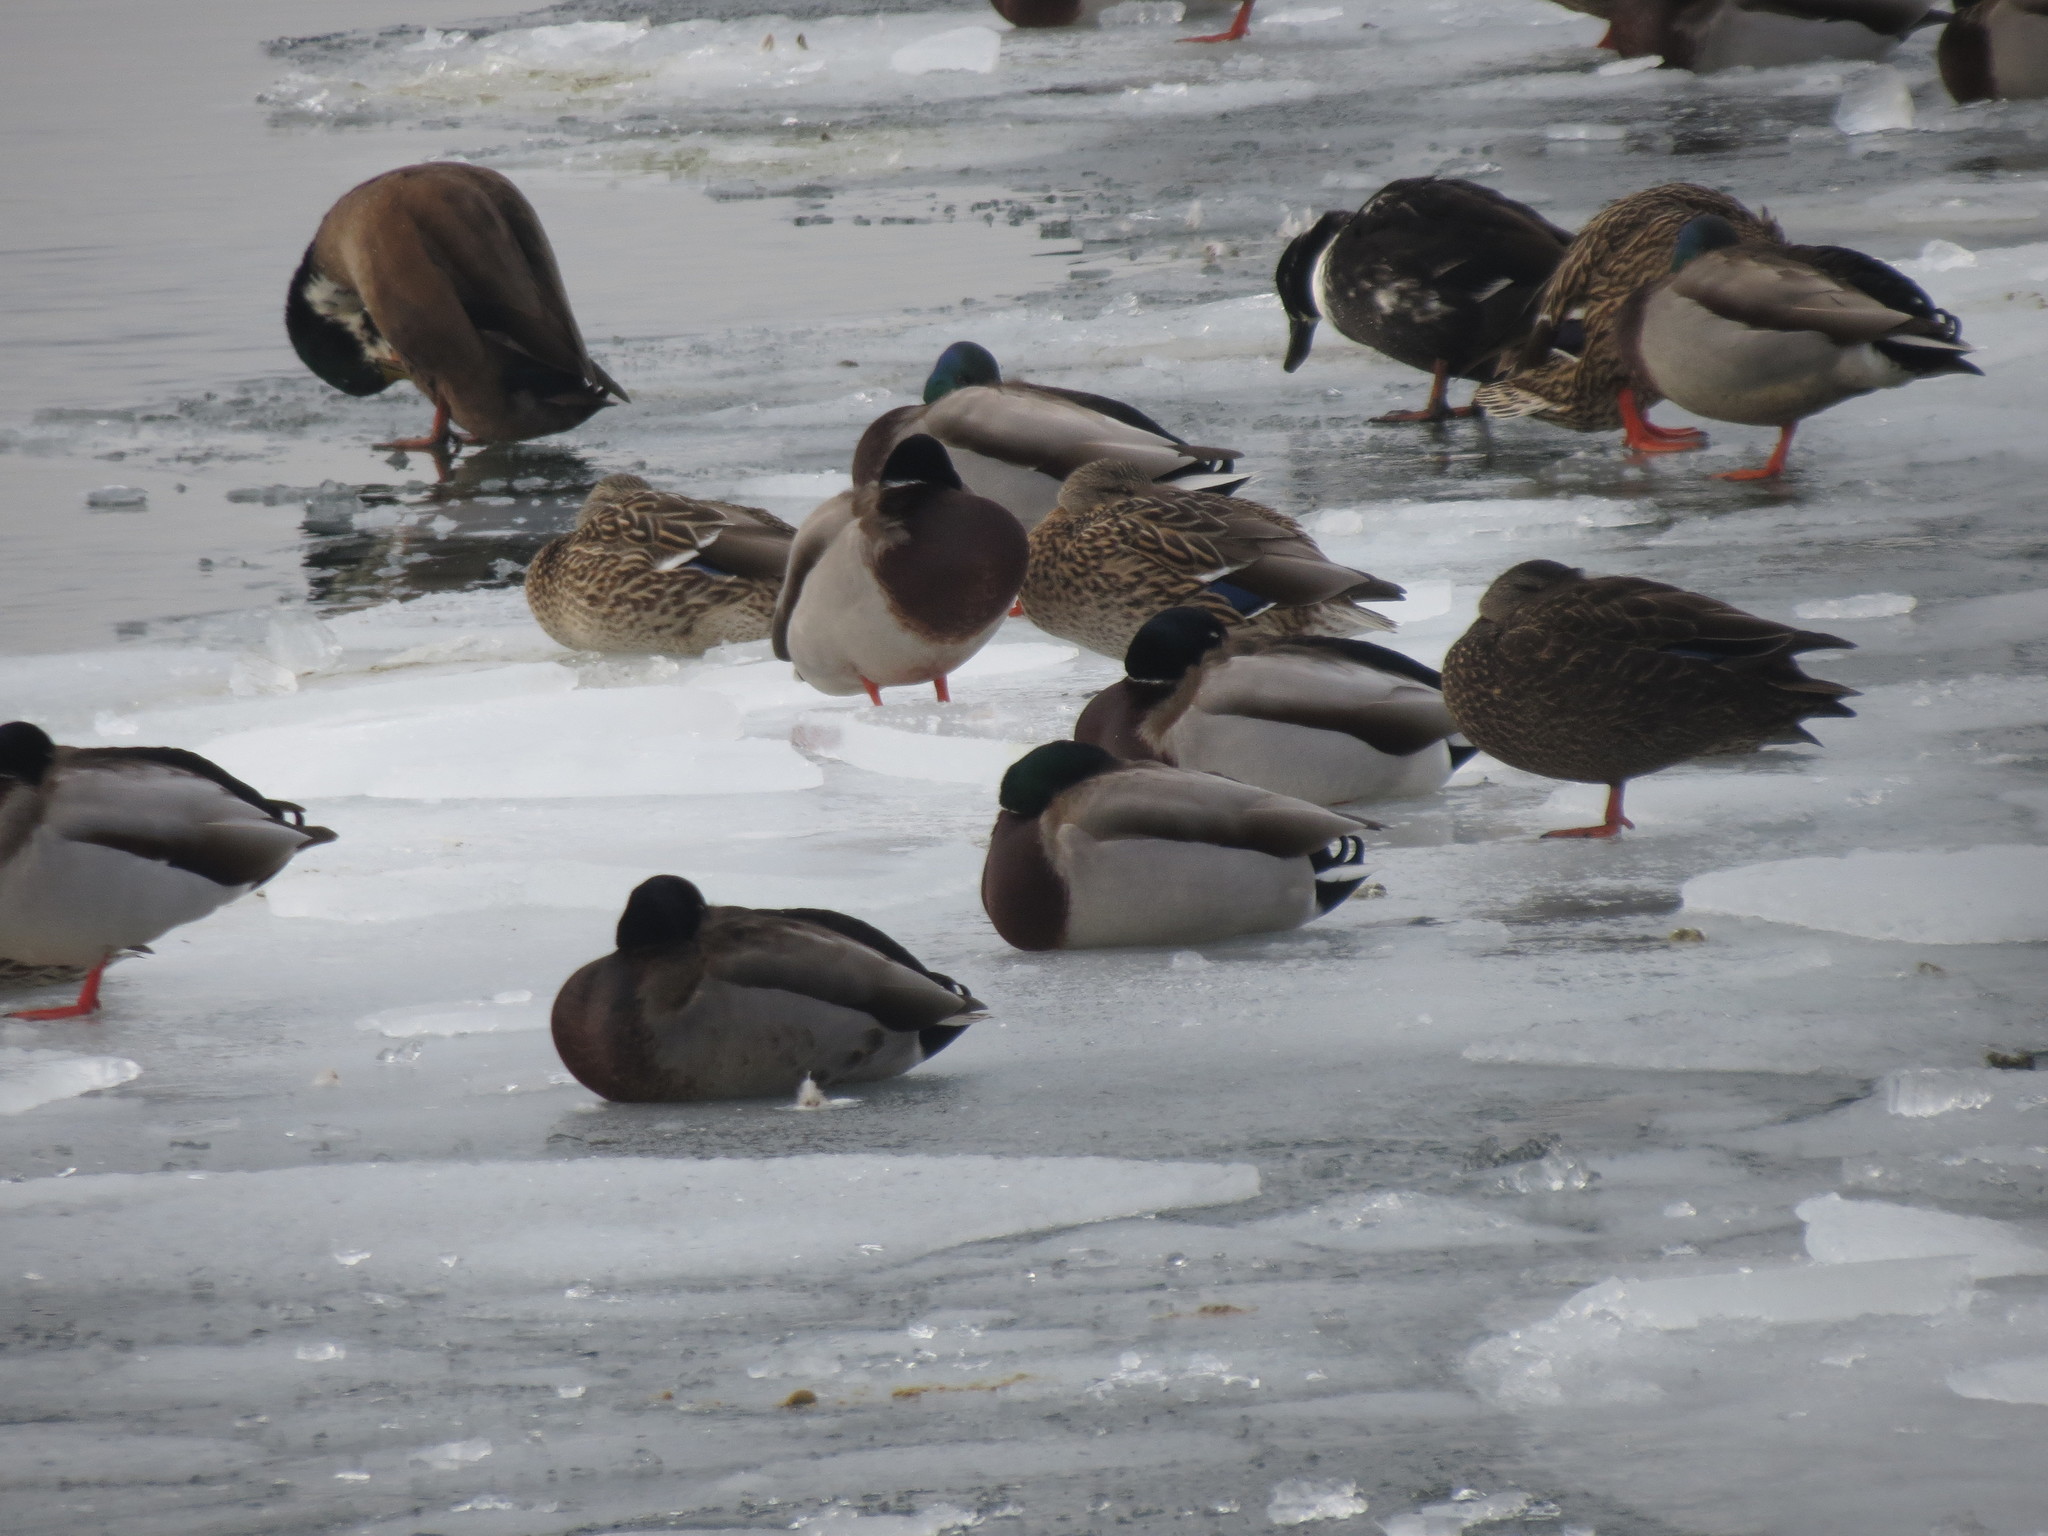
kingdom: Animalia
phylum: Chordata
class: Aves
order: Anseriformes
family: Anatidae
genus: Anas
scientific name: Anas platyrhynchos
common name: Mallard
